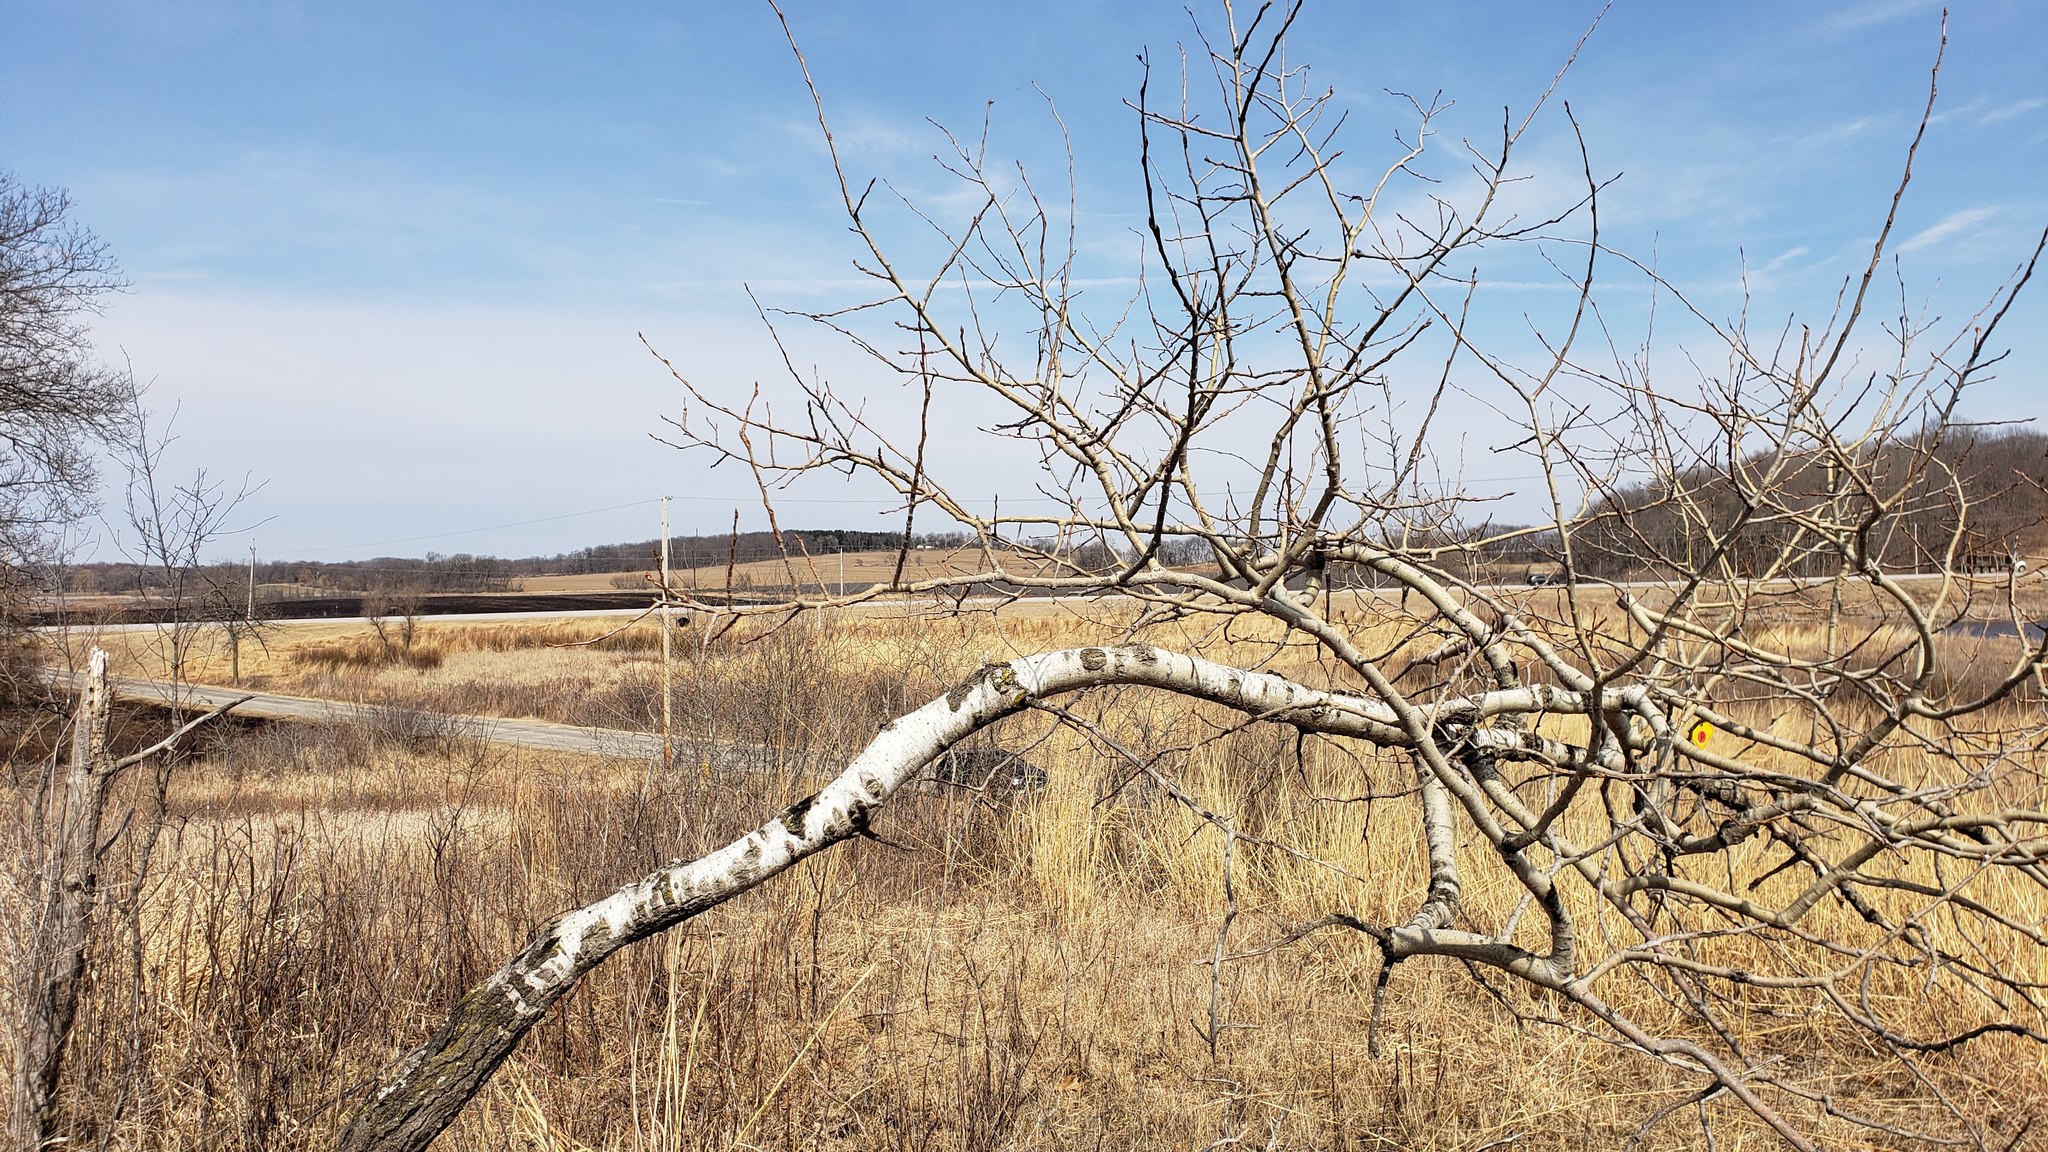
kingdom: Plantae
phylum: Tracheophyta
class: Magnoliopsida
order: Malpighiales
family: Salicaceae
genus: Populus
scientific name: Populus tremuloides
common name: Quaking aspen
